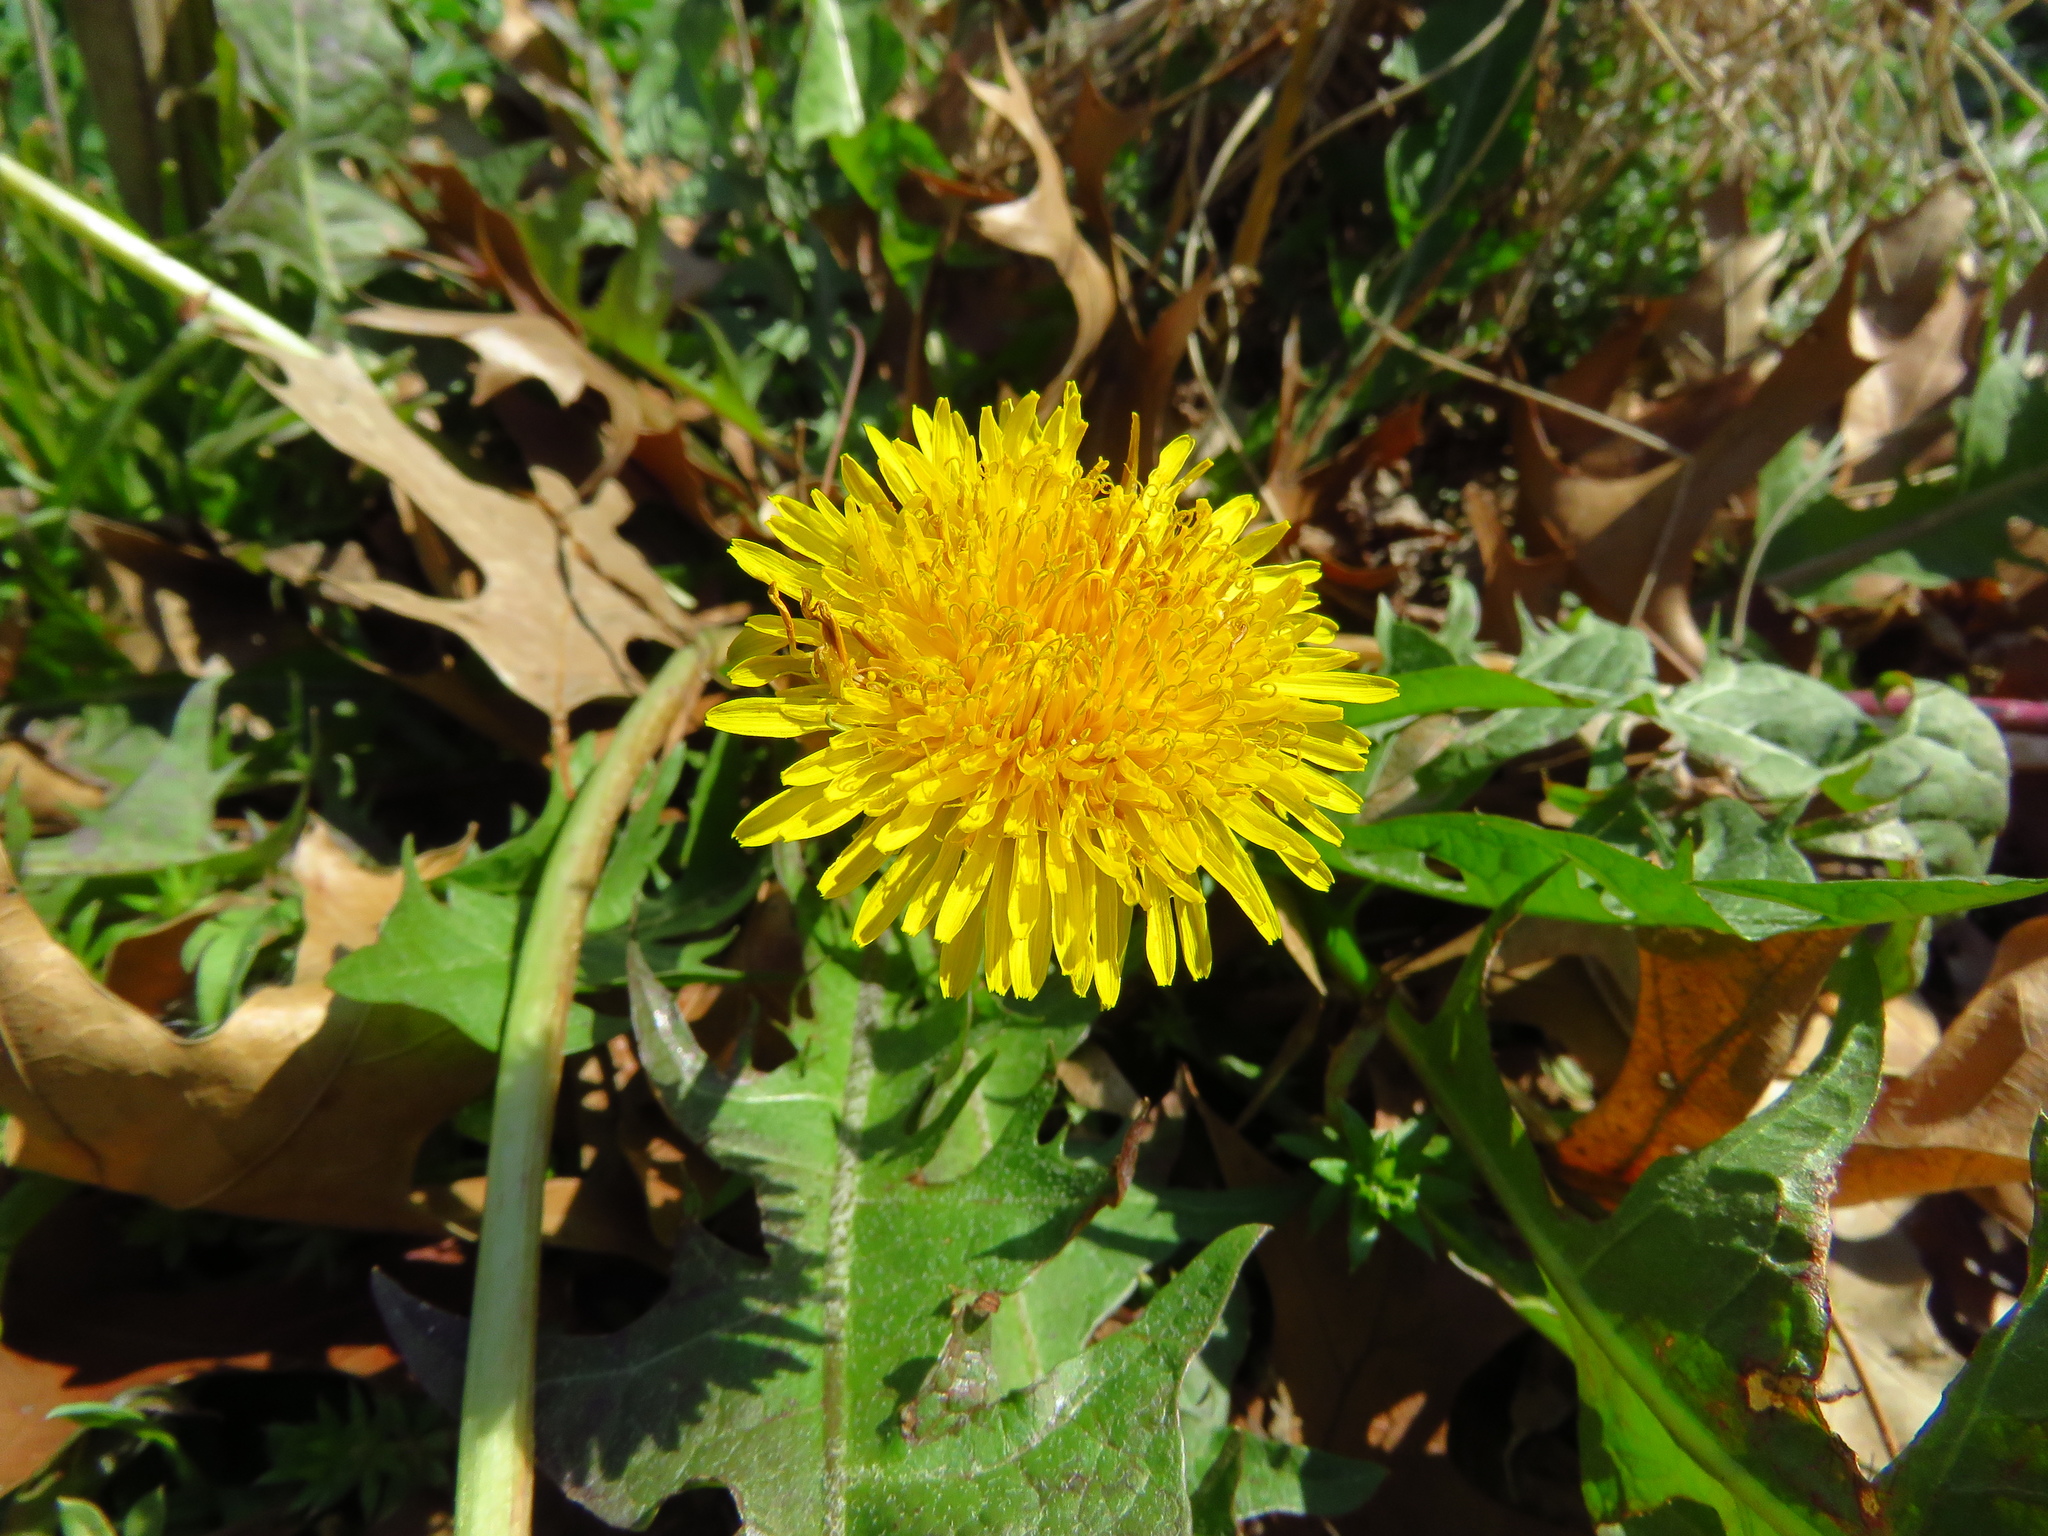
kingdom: Plantae
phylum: Tracheophyta
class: Magnoliopsida
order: Asterales
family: Asteraceae
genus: Taraxacum
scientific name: Taraxacum officinale
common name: Common dandelion
